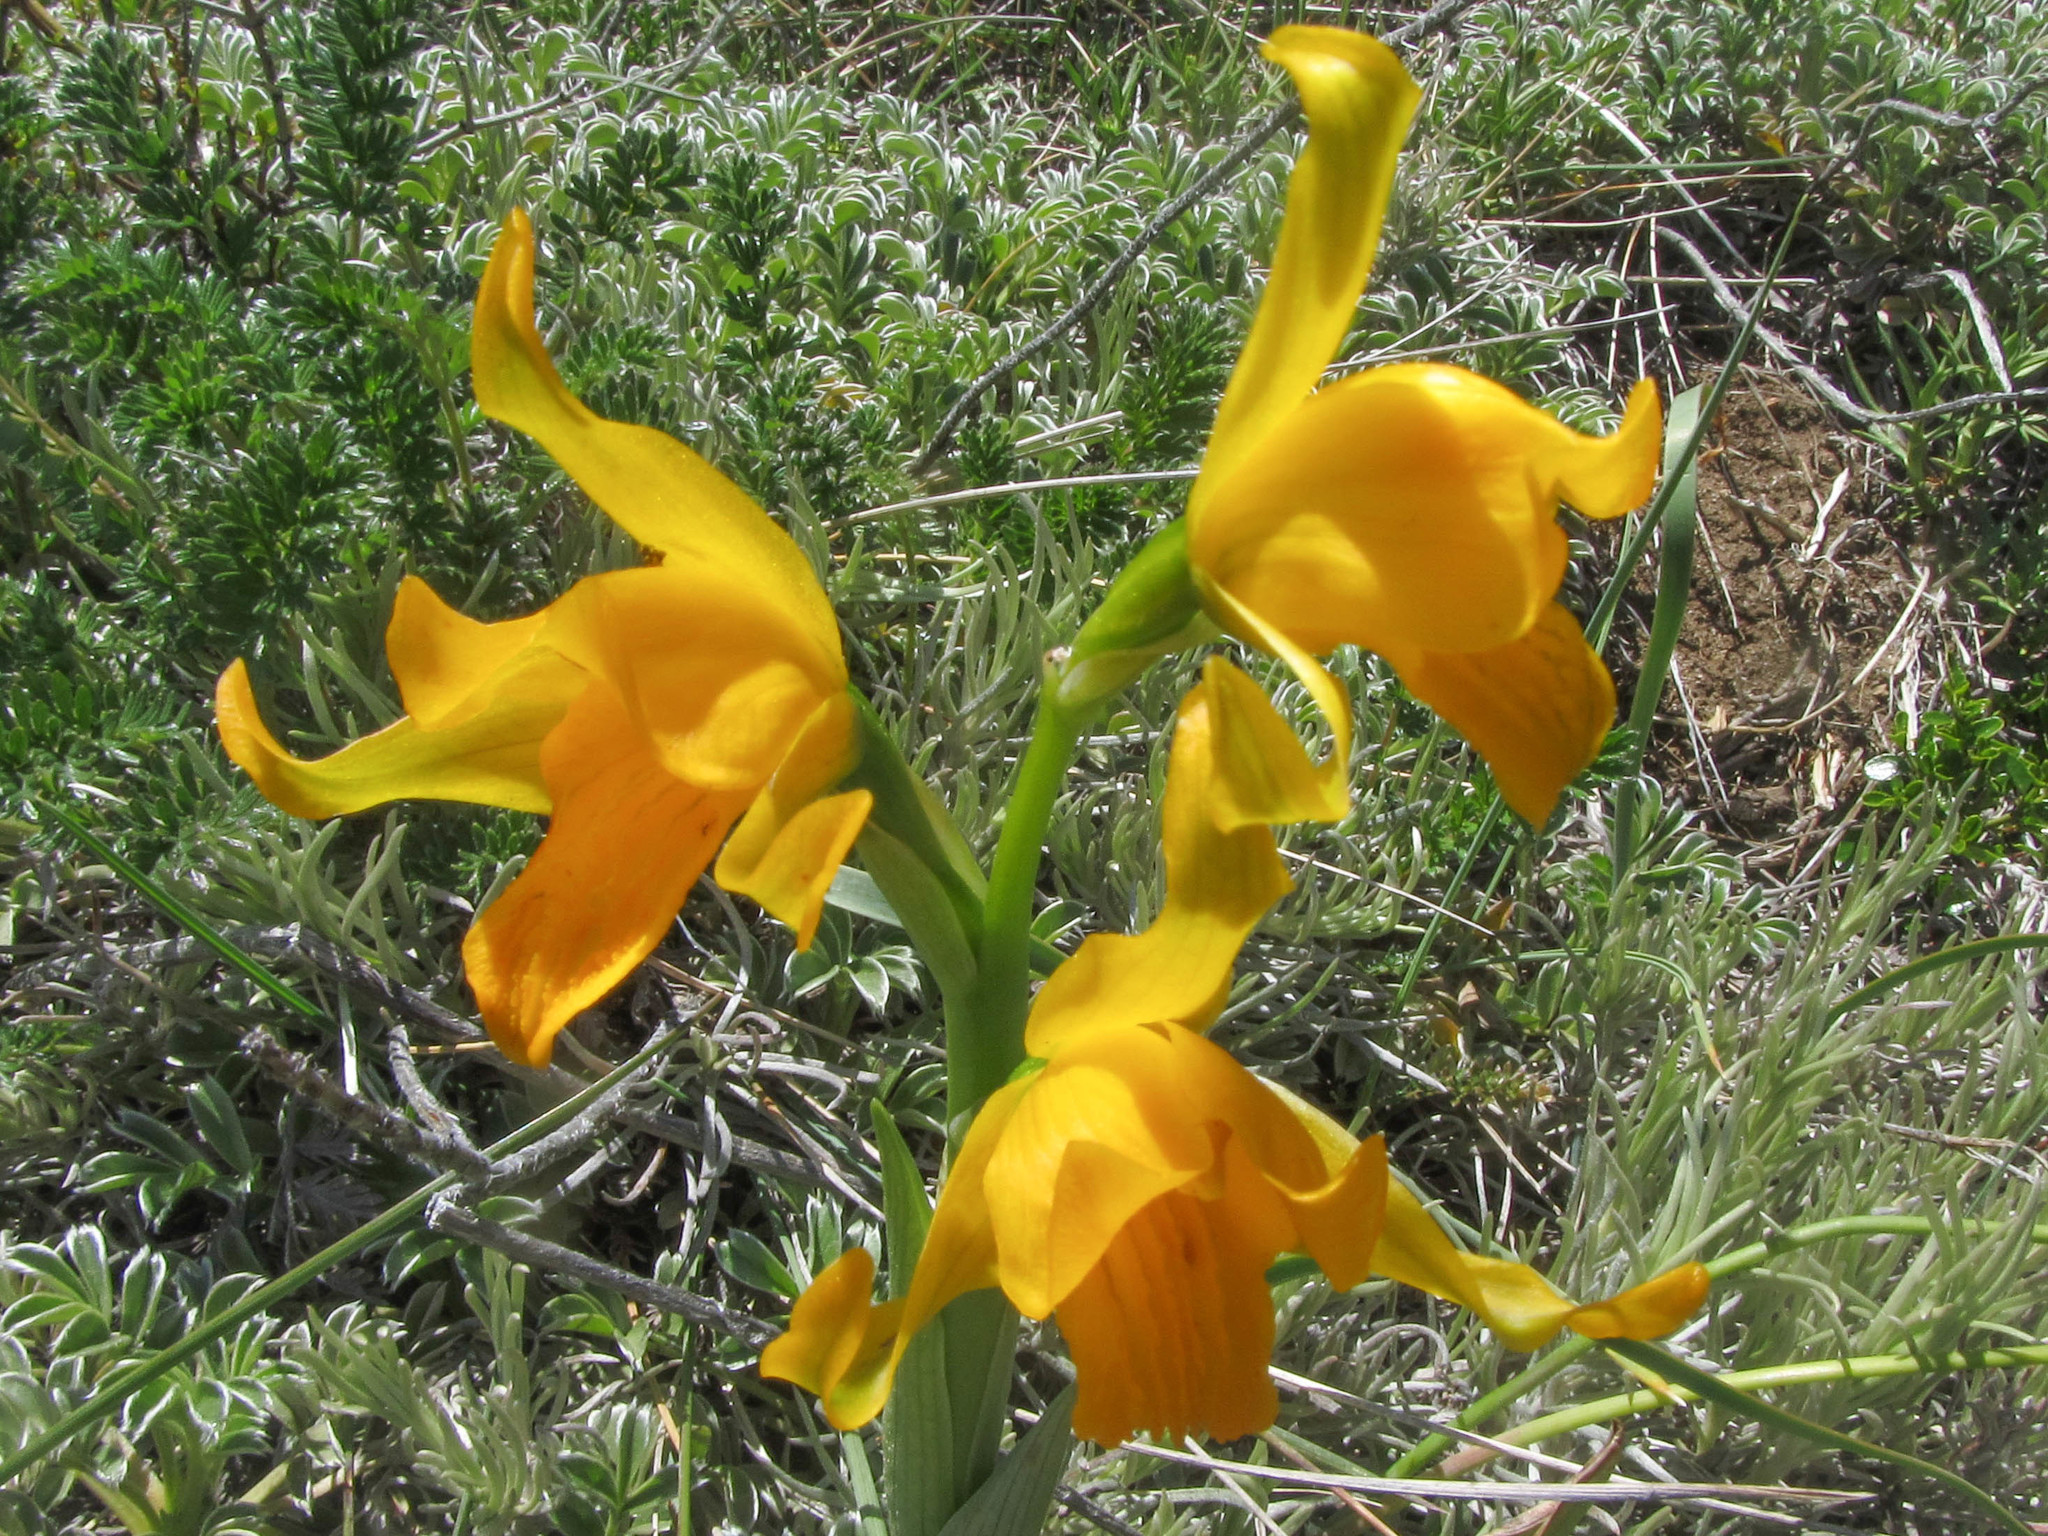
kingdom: Plantae
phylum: Tracheophyta
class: Liliopsida
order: Asparagales
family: Orchidaceae
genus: Chloraea
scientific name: Chloraea alpina
